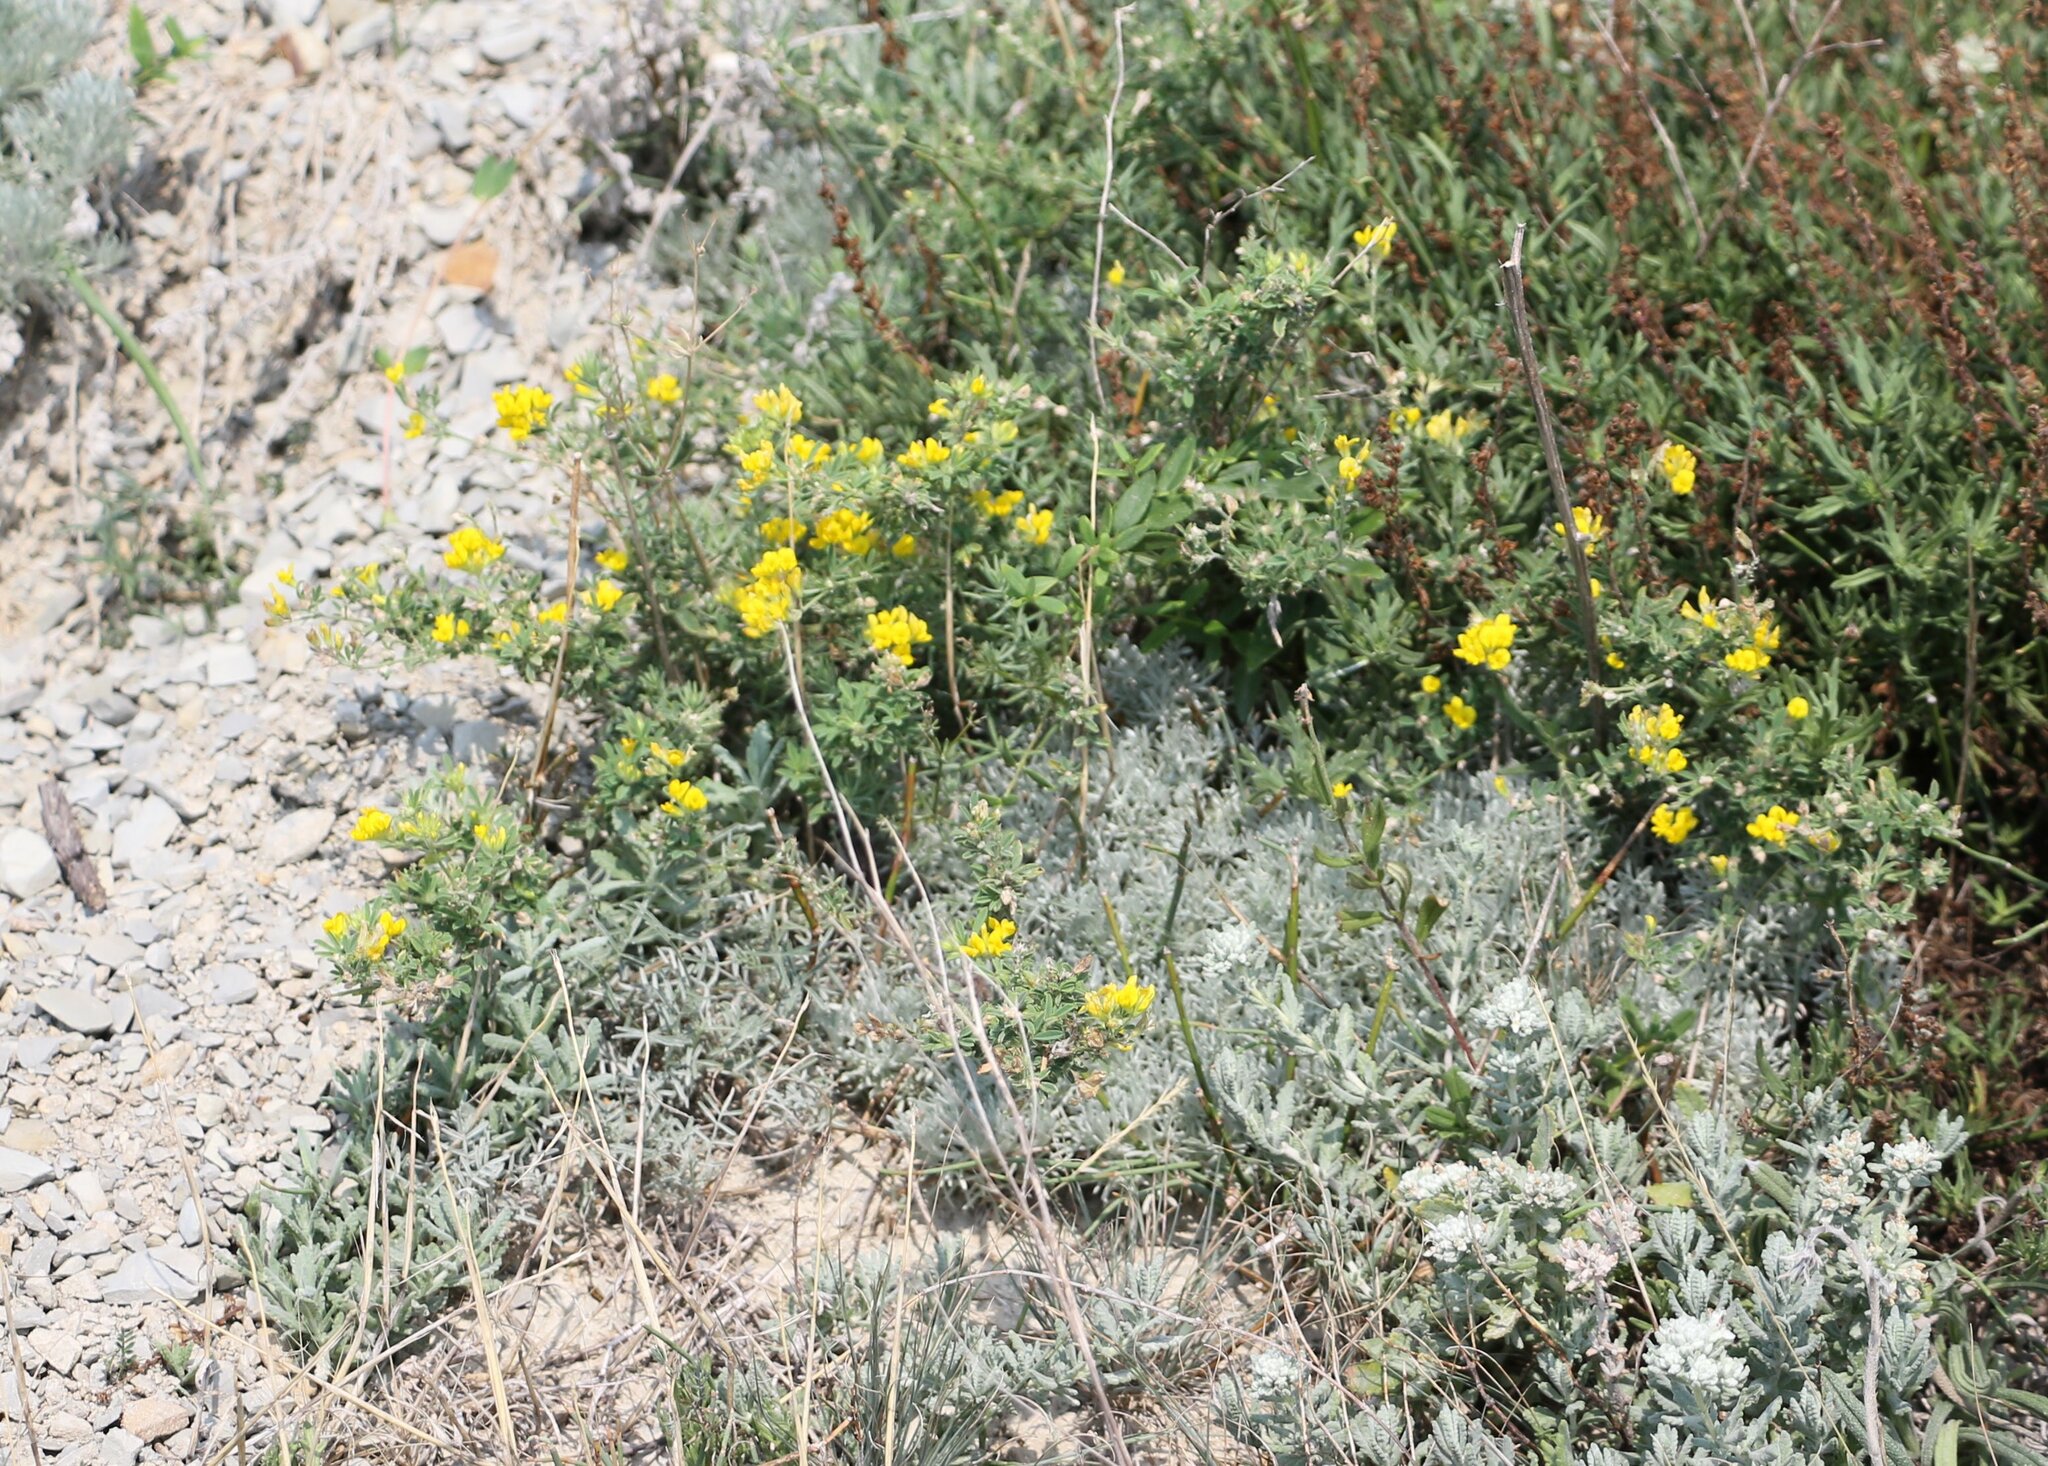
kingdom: Plantae
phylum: Tracheophyta
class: Magnoliopsida
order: Fabales
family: Fabaceae
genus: Medicago
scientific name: Medicago falcata
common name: Sickle medick
